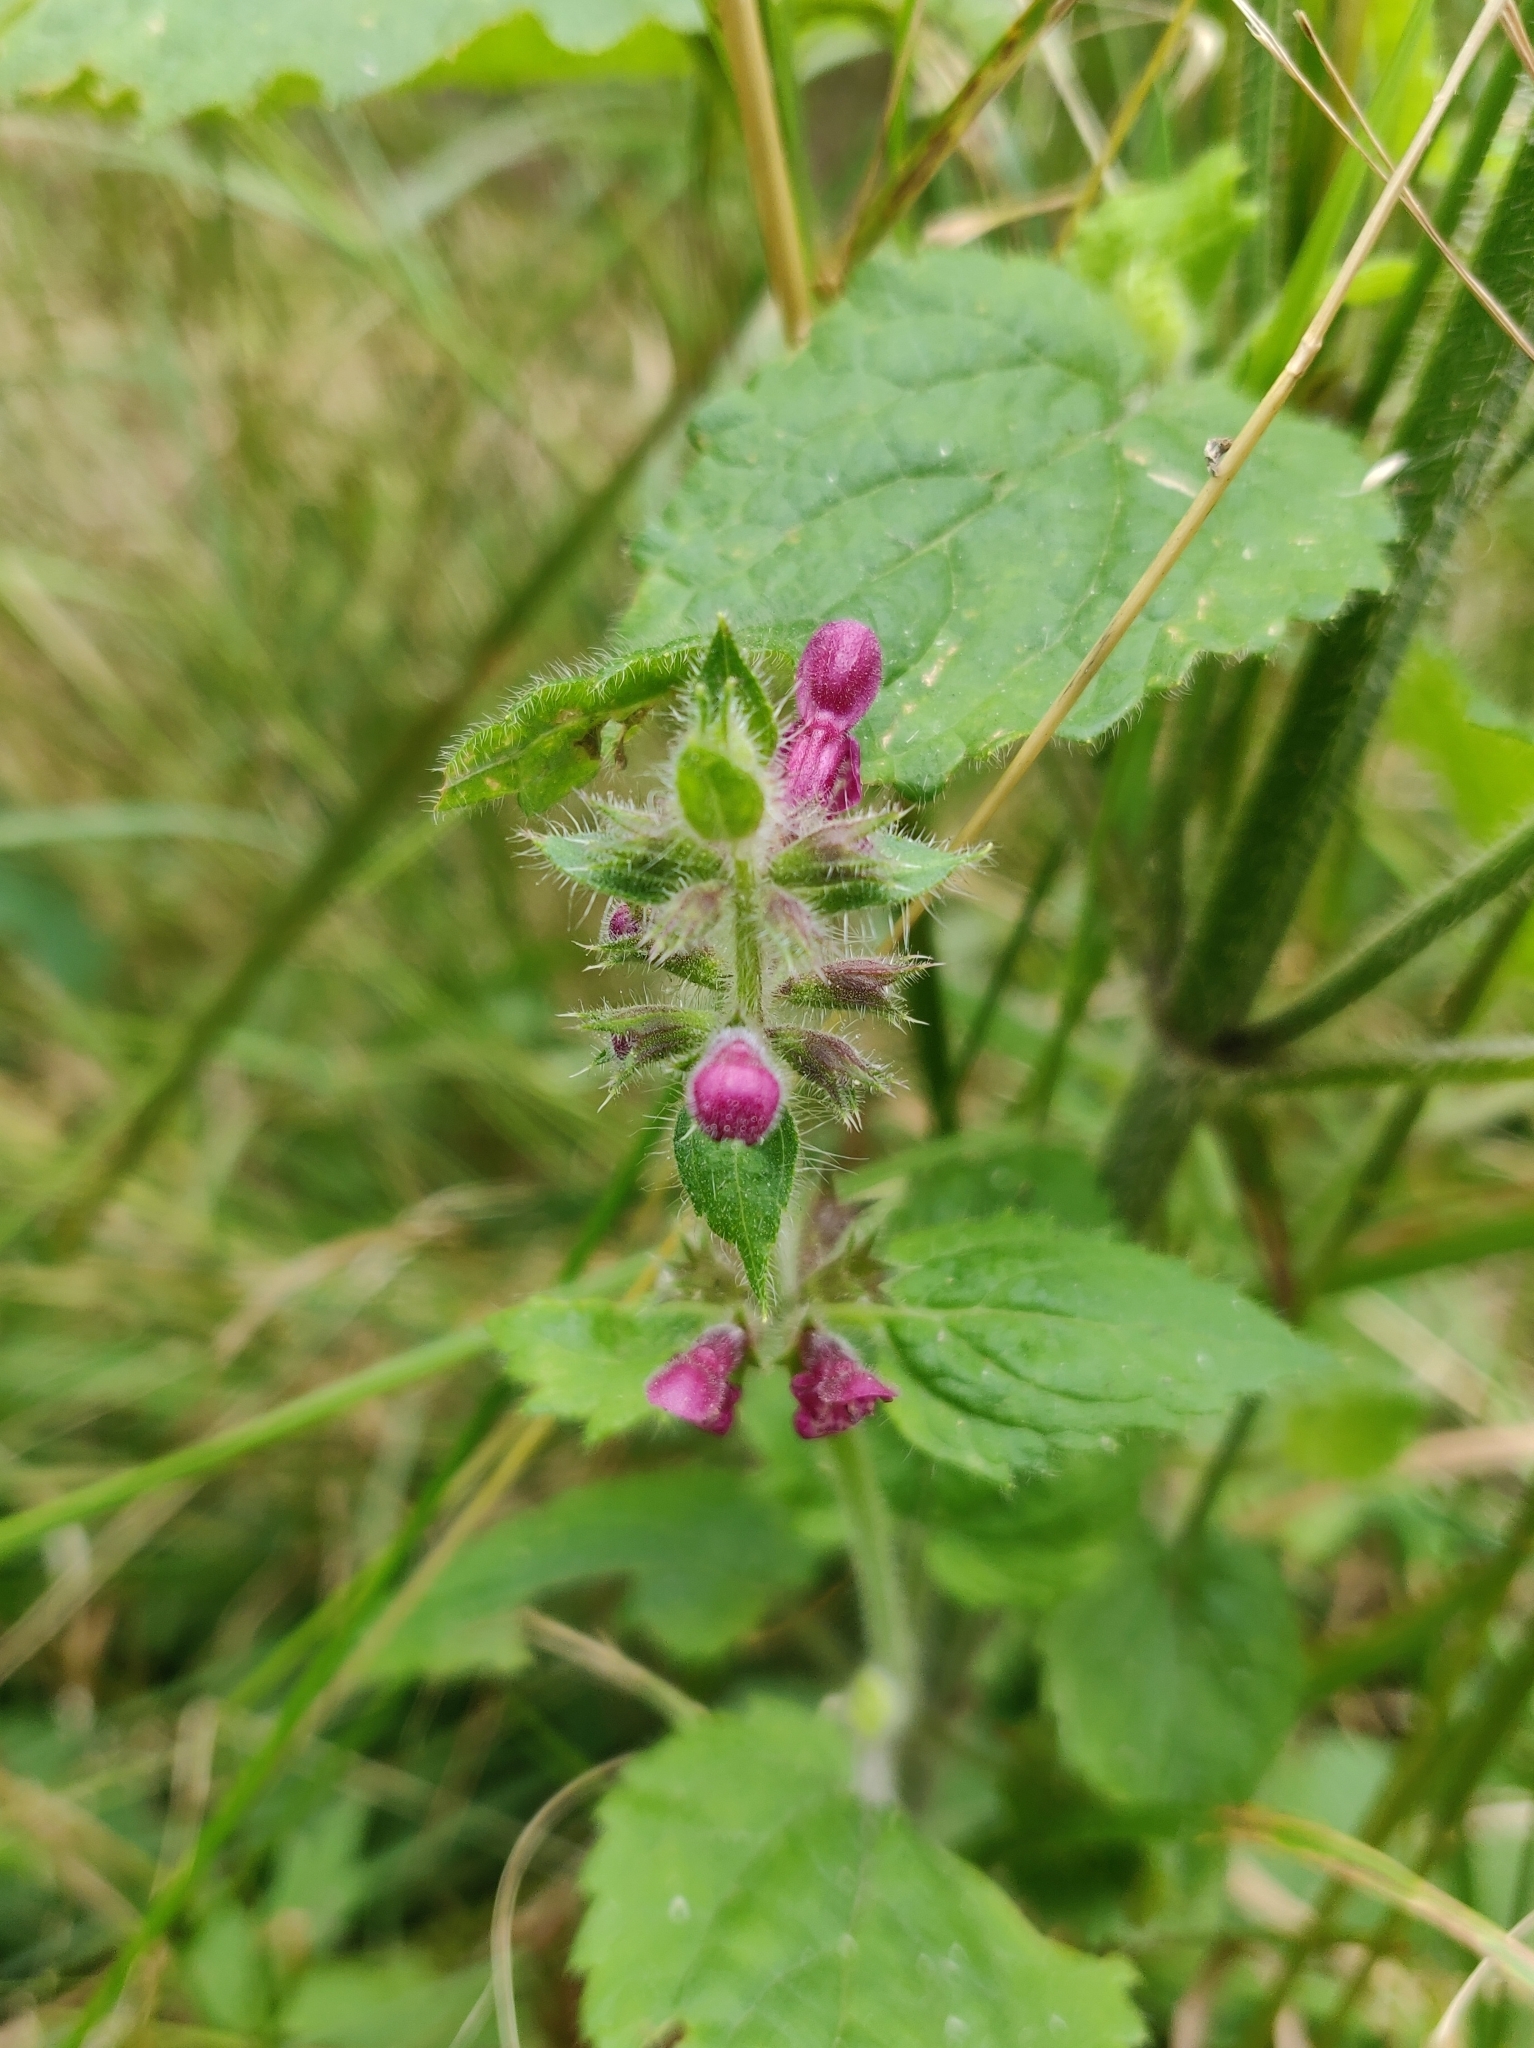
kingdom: Plantae
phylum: Tracheophyta
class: Magnoliopsida
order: Lamiales
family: Lamiaceae
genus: Stachys
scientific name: Stachys sylvatica
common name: Hedge woundwort
